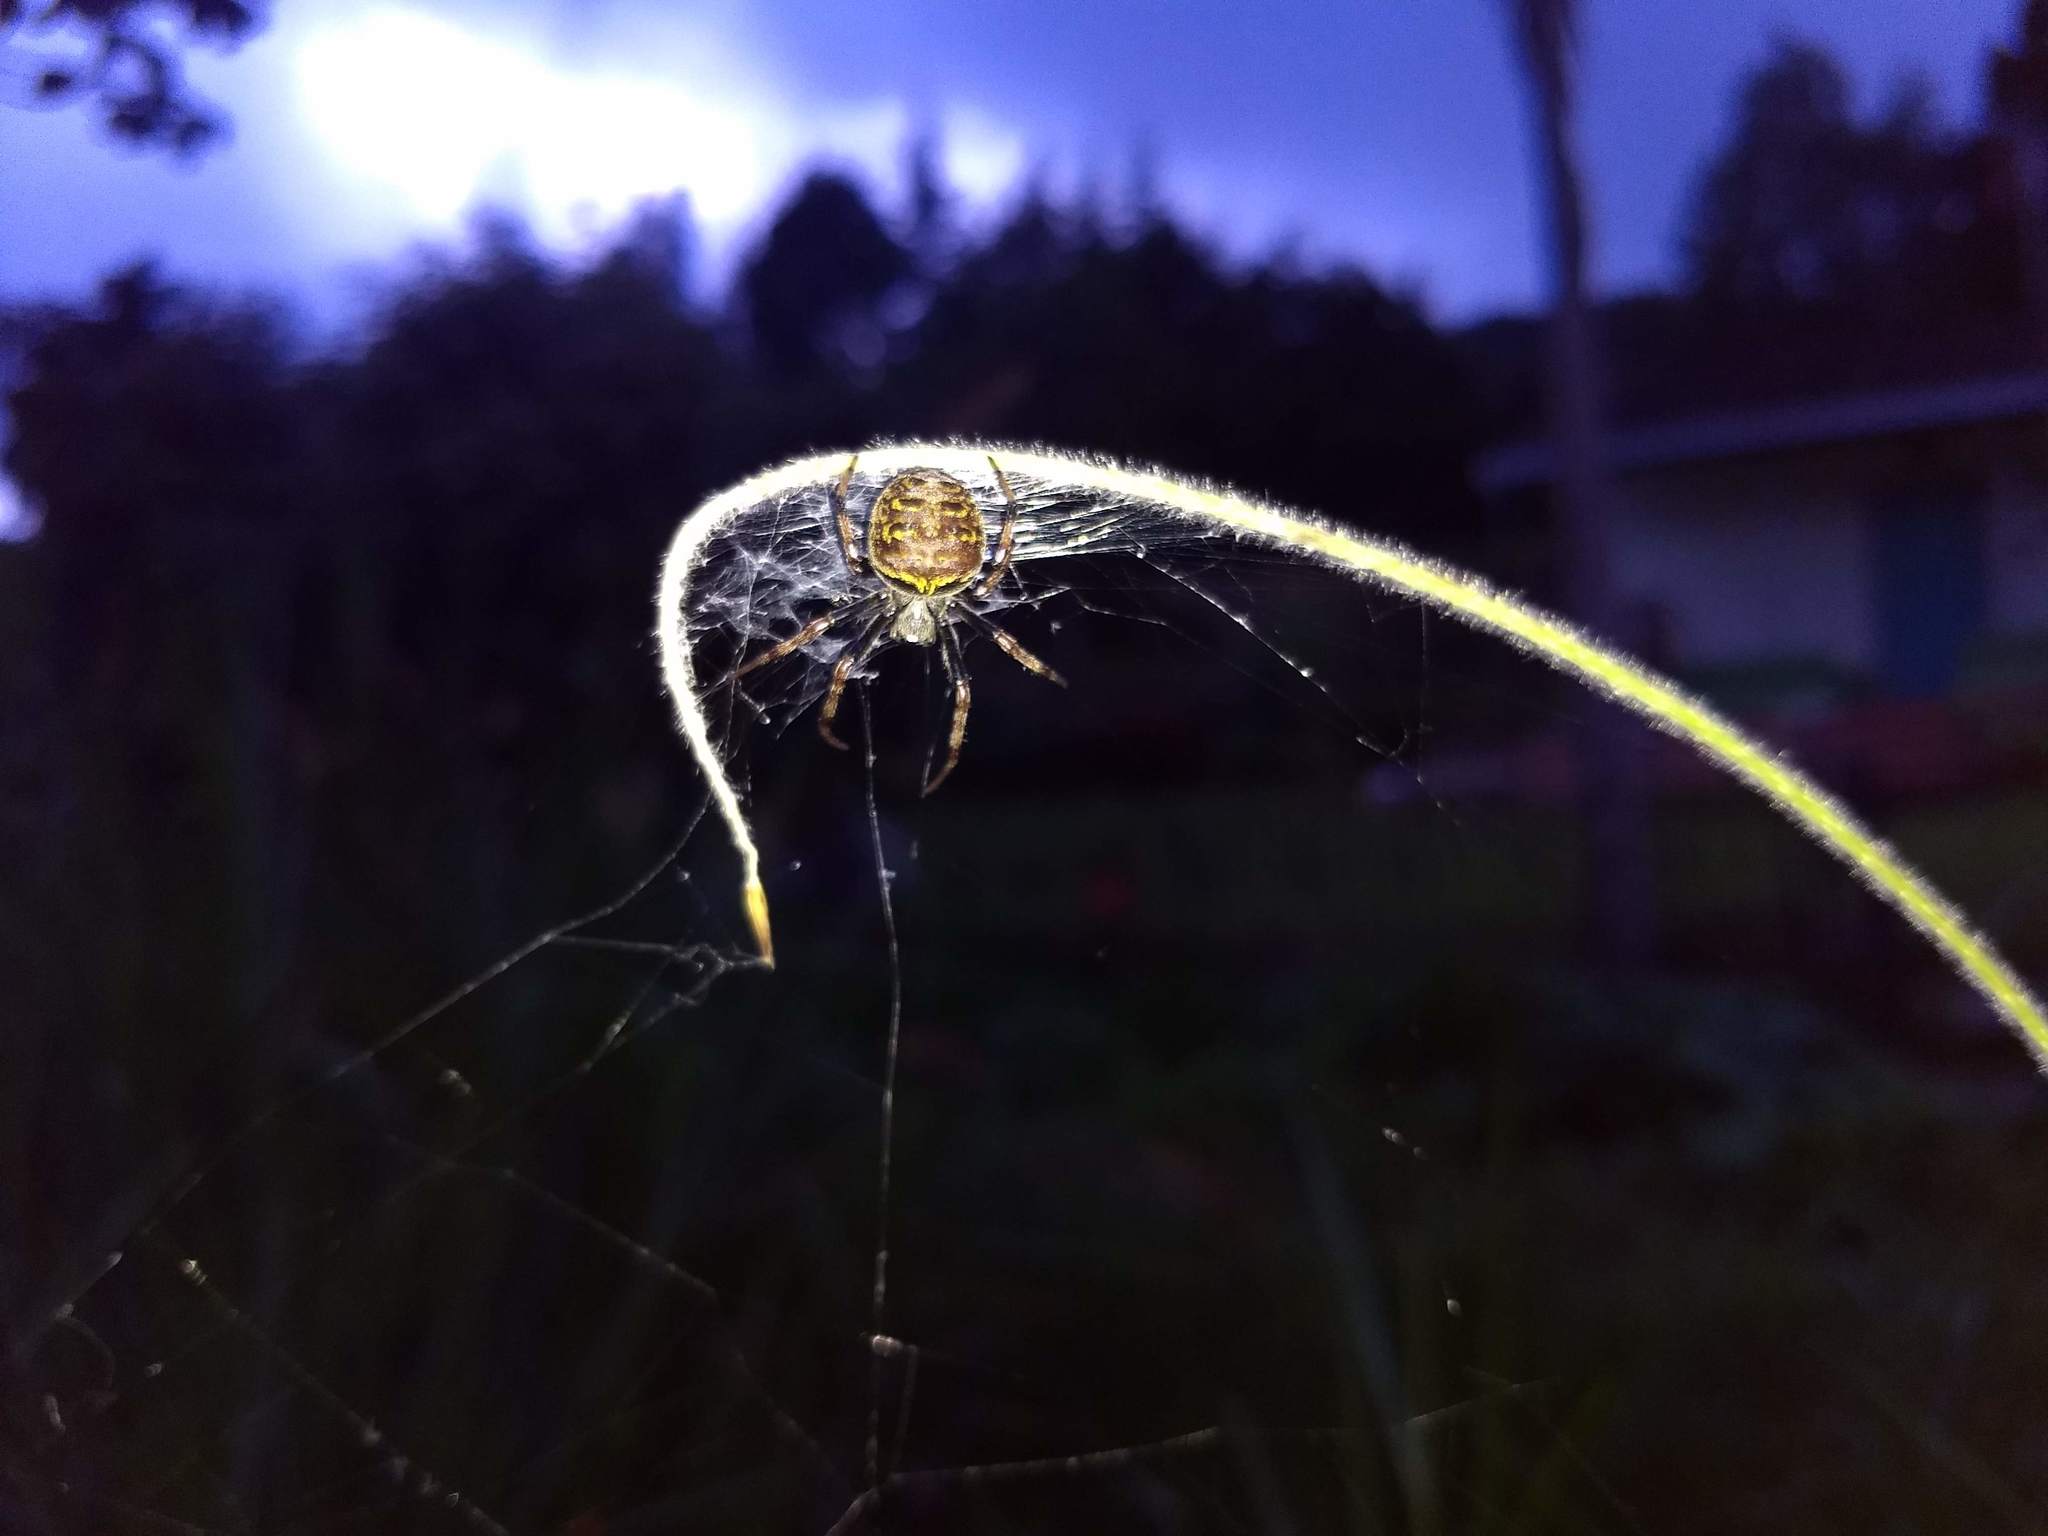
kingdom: Animalia
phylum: Arthropoda
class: Arachnida
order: Araneae
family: Araneidae
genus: Araneus
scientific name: Araneus granadensis
